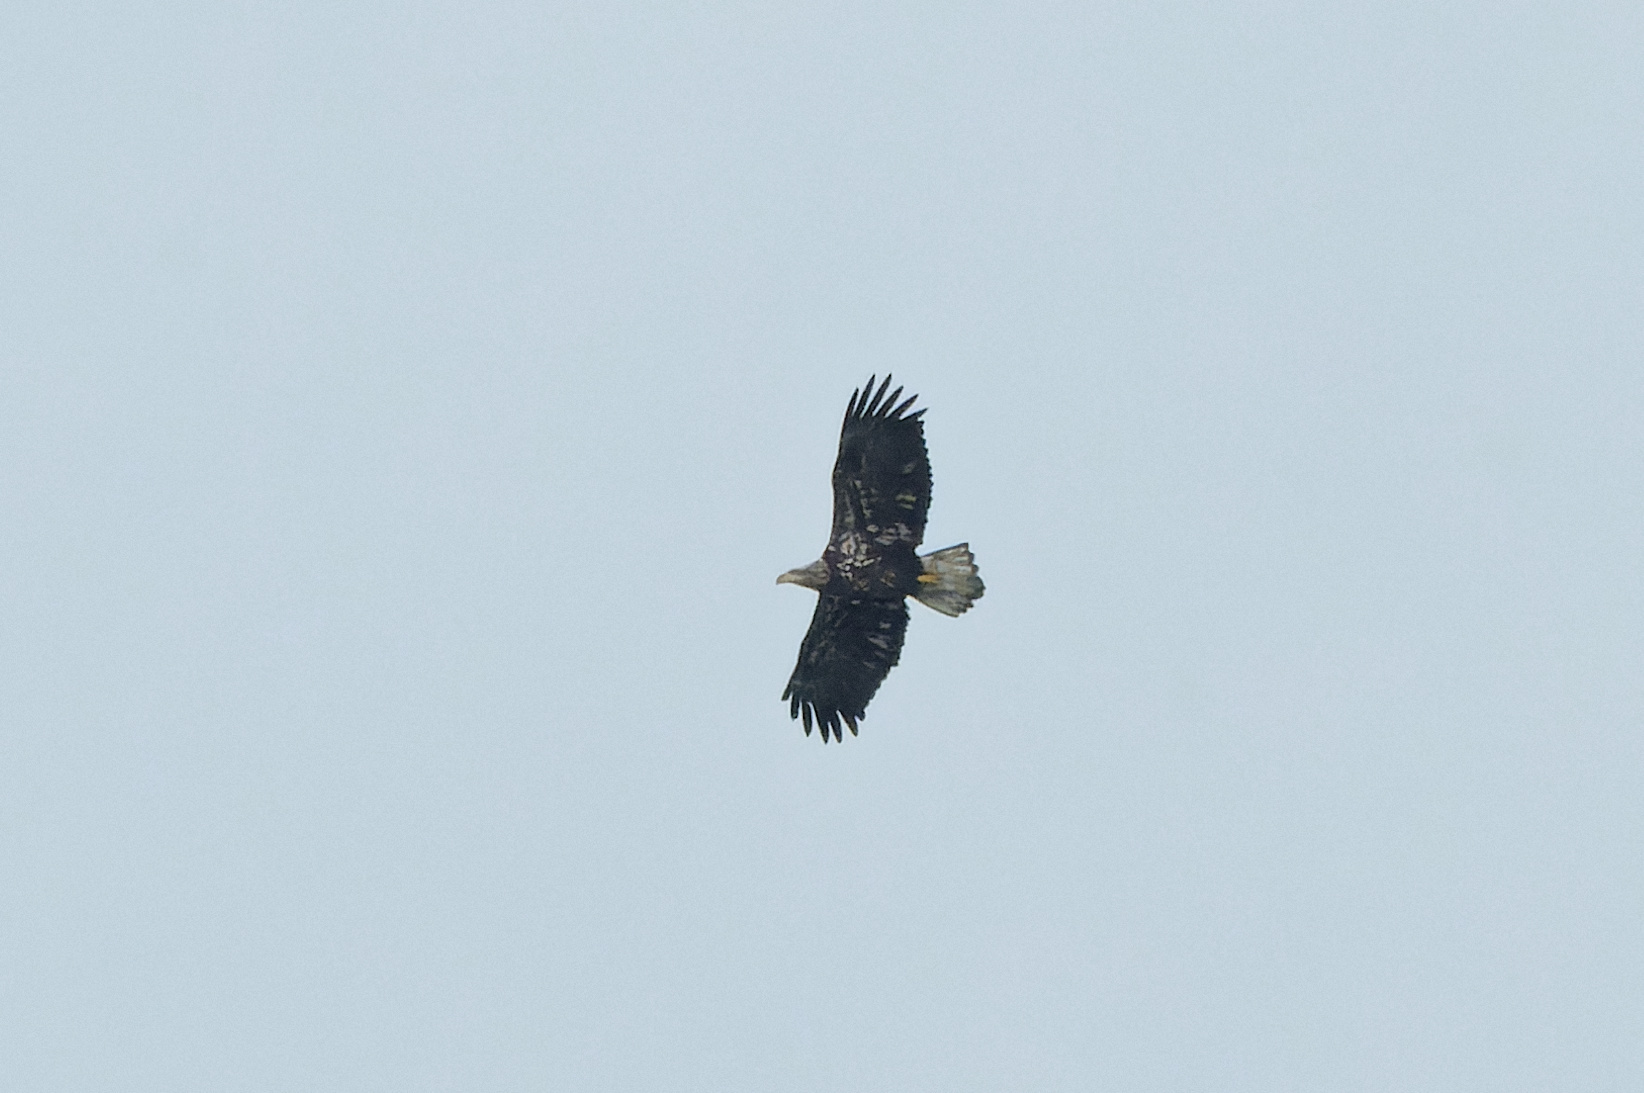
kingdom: Animalia
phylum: Chordata
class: Aves
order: Accipitriformes
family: Accipitridae
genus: Haliaeetus
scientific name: Haliaeetus leucocephalus
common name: Bald eagle
